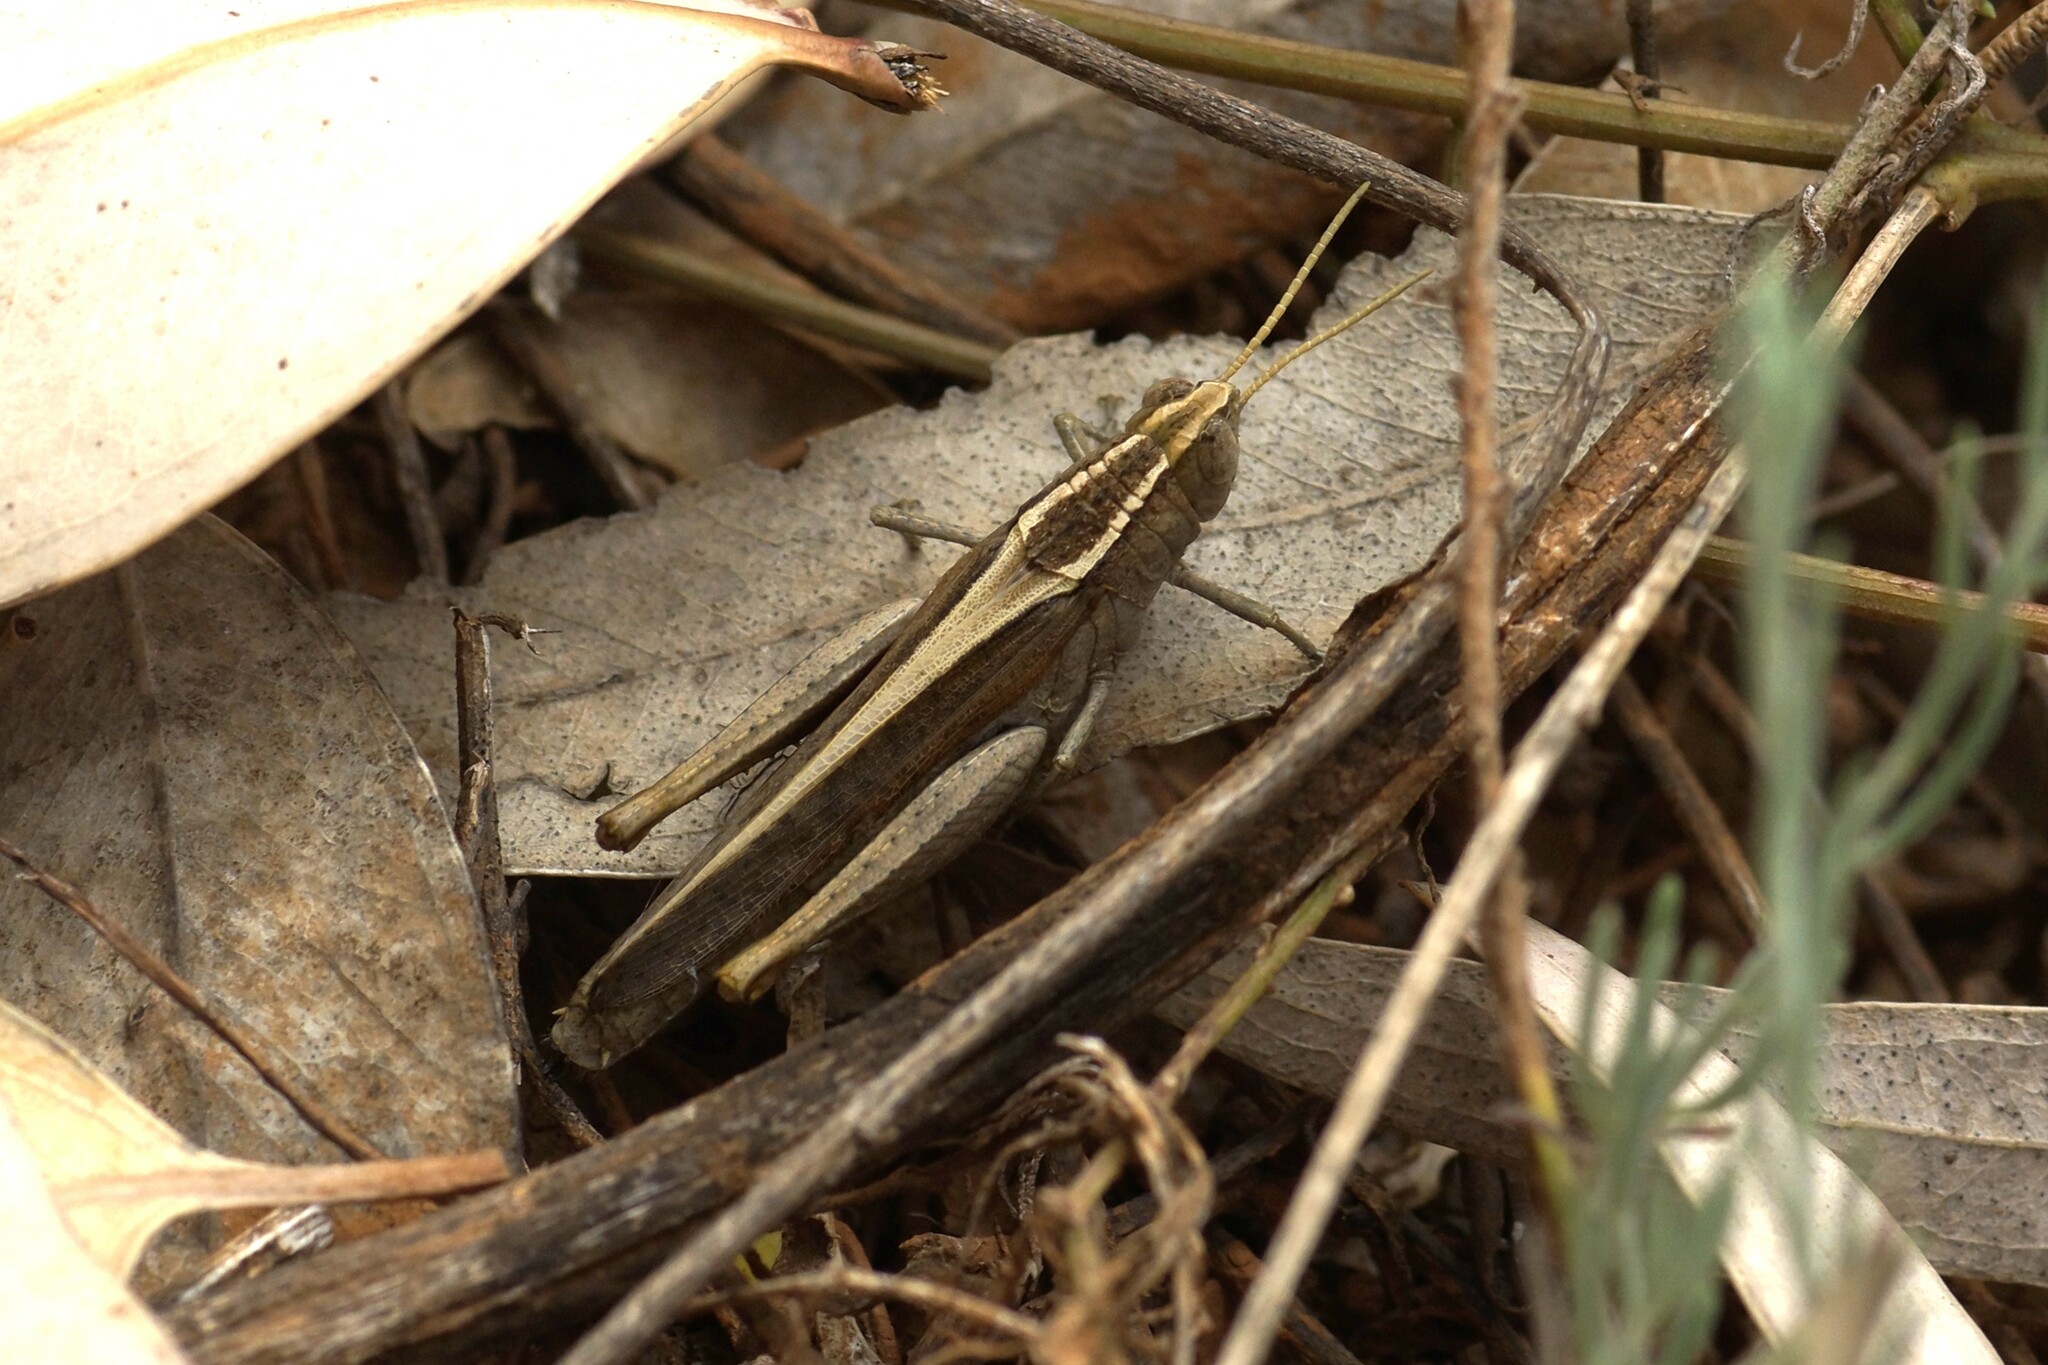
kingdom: Animalia
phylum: Arthropoda
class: Insecta
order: Orthoptera
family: Acrididae
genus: Apotropis
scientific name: Apotropis vittata
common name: Common striped grasshopper
